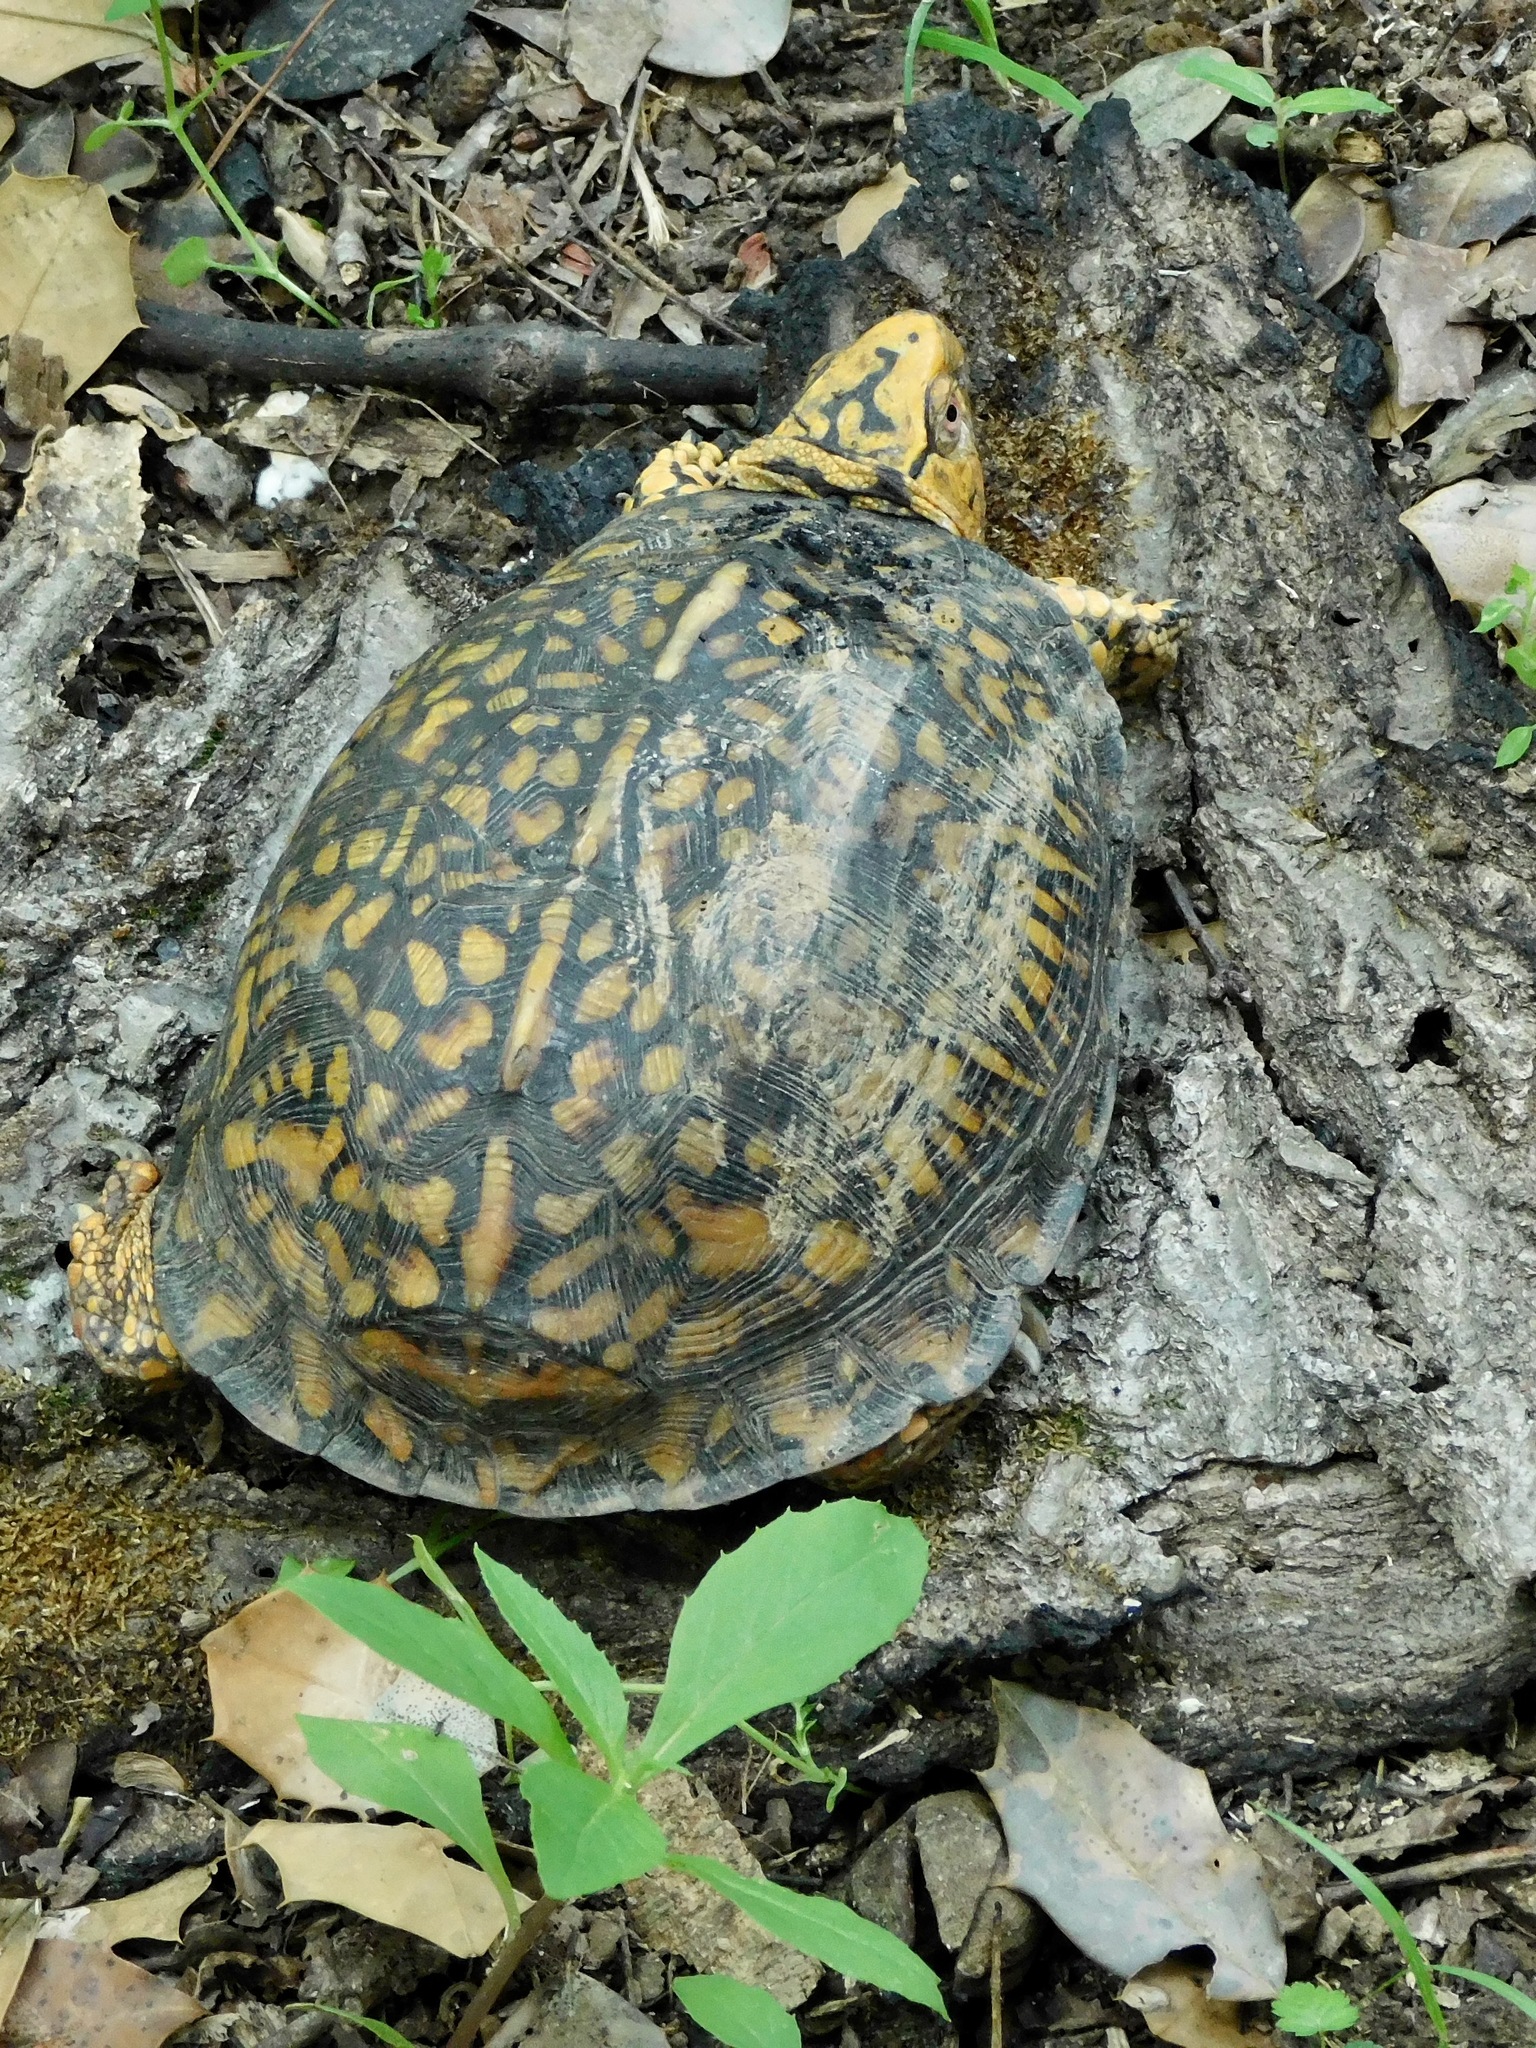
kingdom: Animalia
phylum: Chordata
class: Testudines
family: Emydidae
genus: Terrapene
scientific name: Terrapene carolina
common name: Common box turtle
